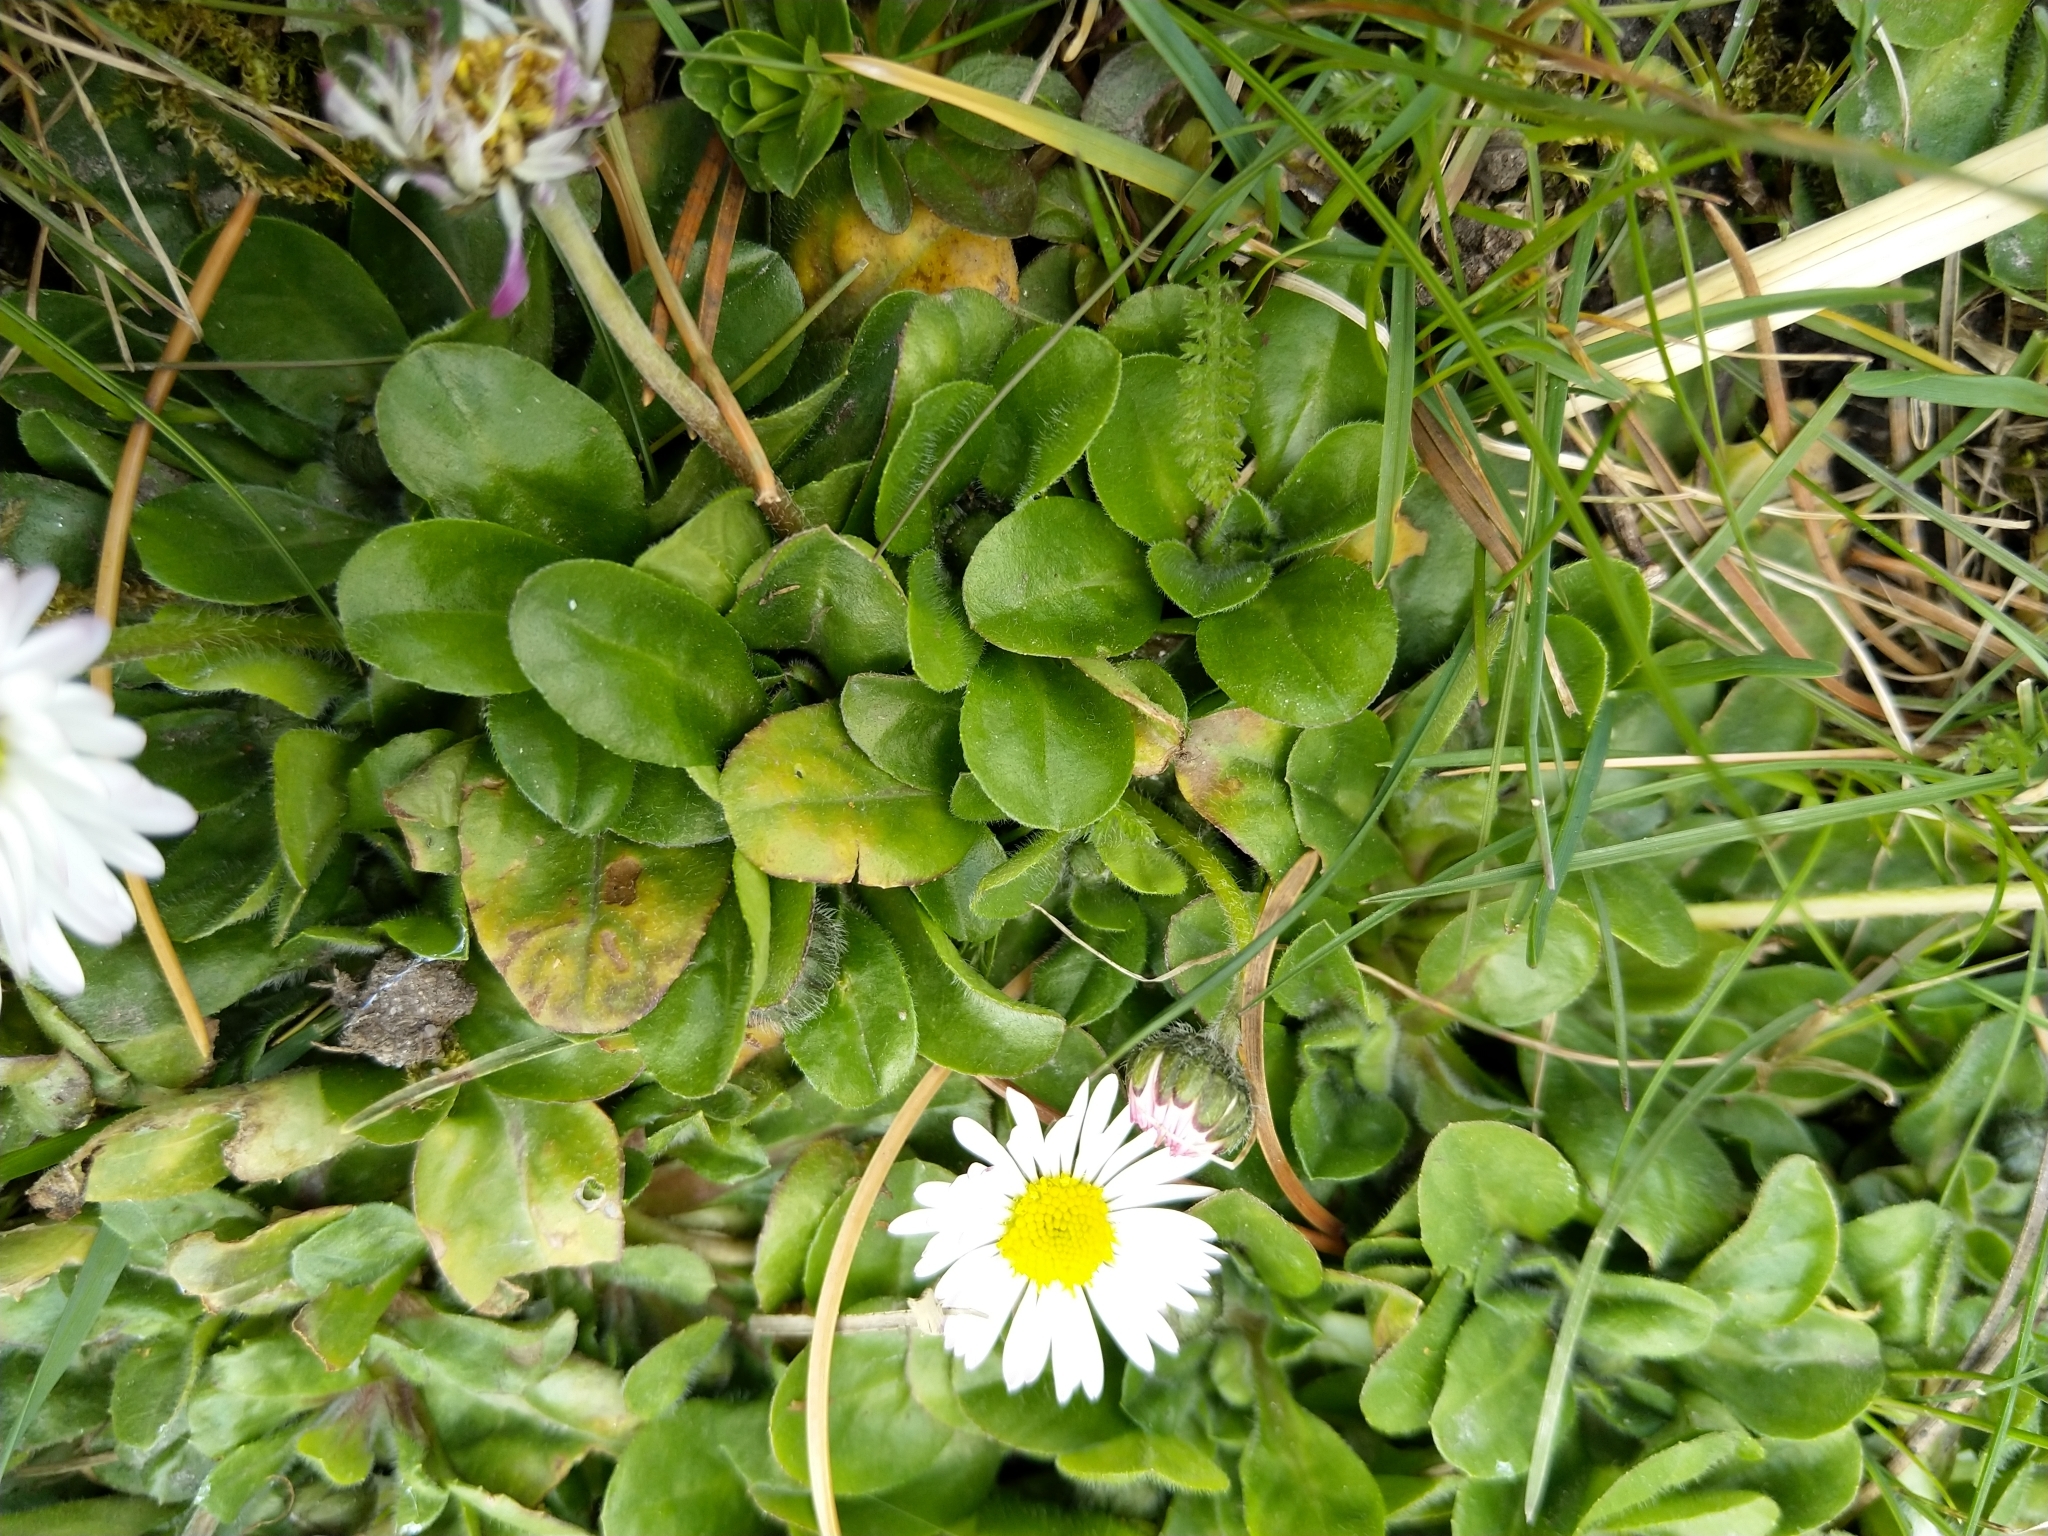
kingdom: Plantae
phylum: Tracheophyta
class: Magnoliopsida
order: Asterales
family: Asteraceae
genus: Bellis
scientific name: Bellis perennis
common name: Lawndaisy
